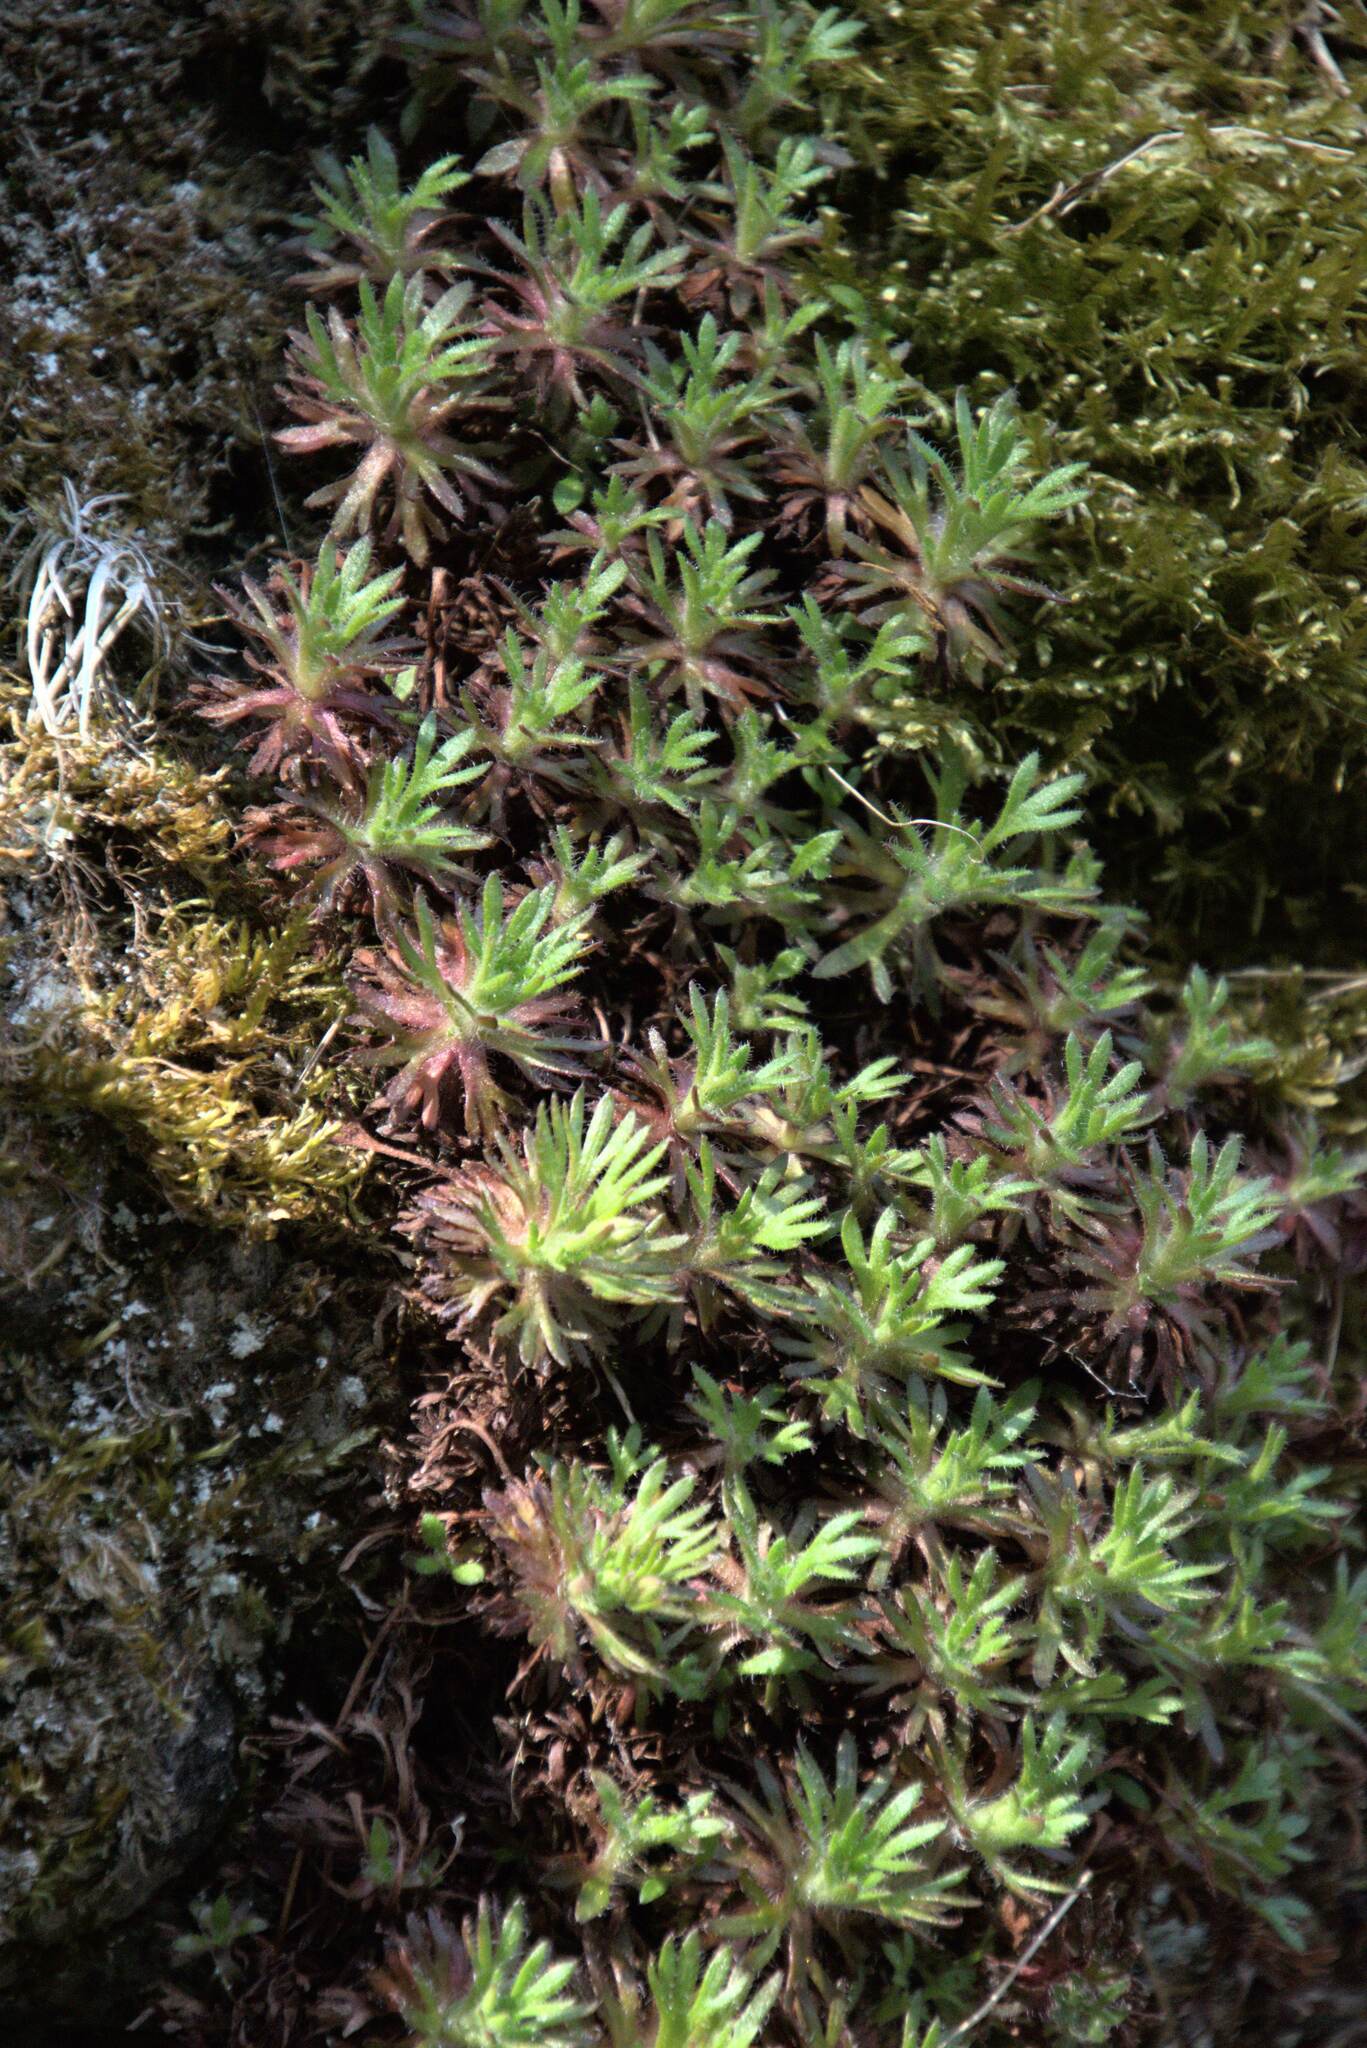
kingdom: Plantae
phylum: Tracheophyta
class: Magnoliopsida
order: Saxifragales
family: Saxifragaceae
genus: Saxifraga
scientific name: Saxifraga rosacea
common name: Irish saxifrage
